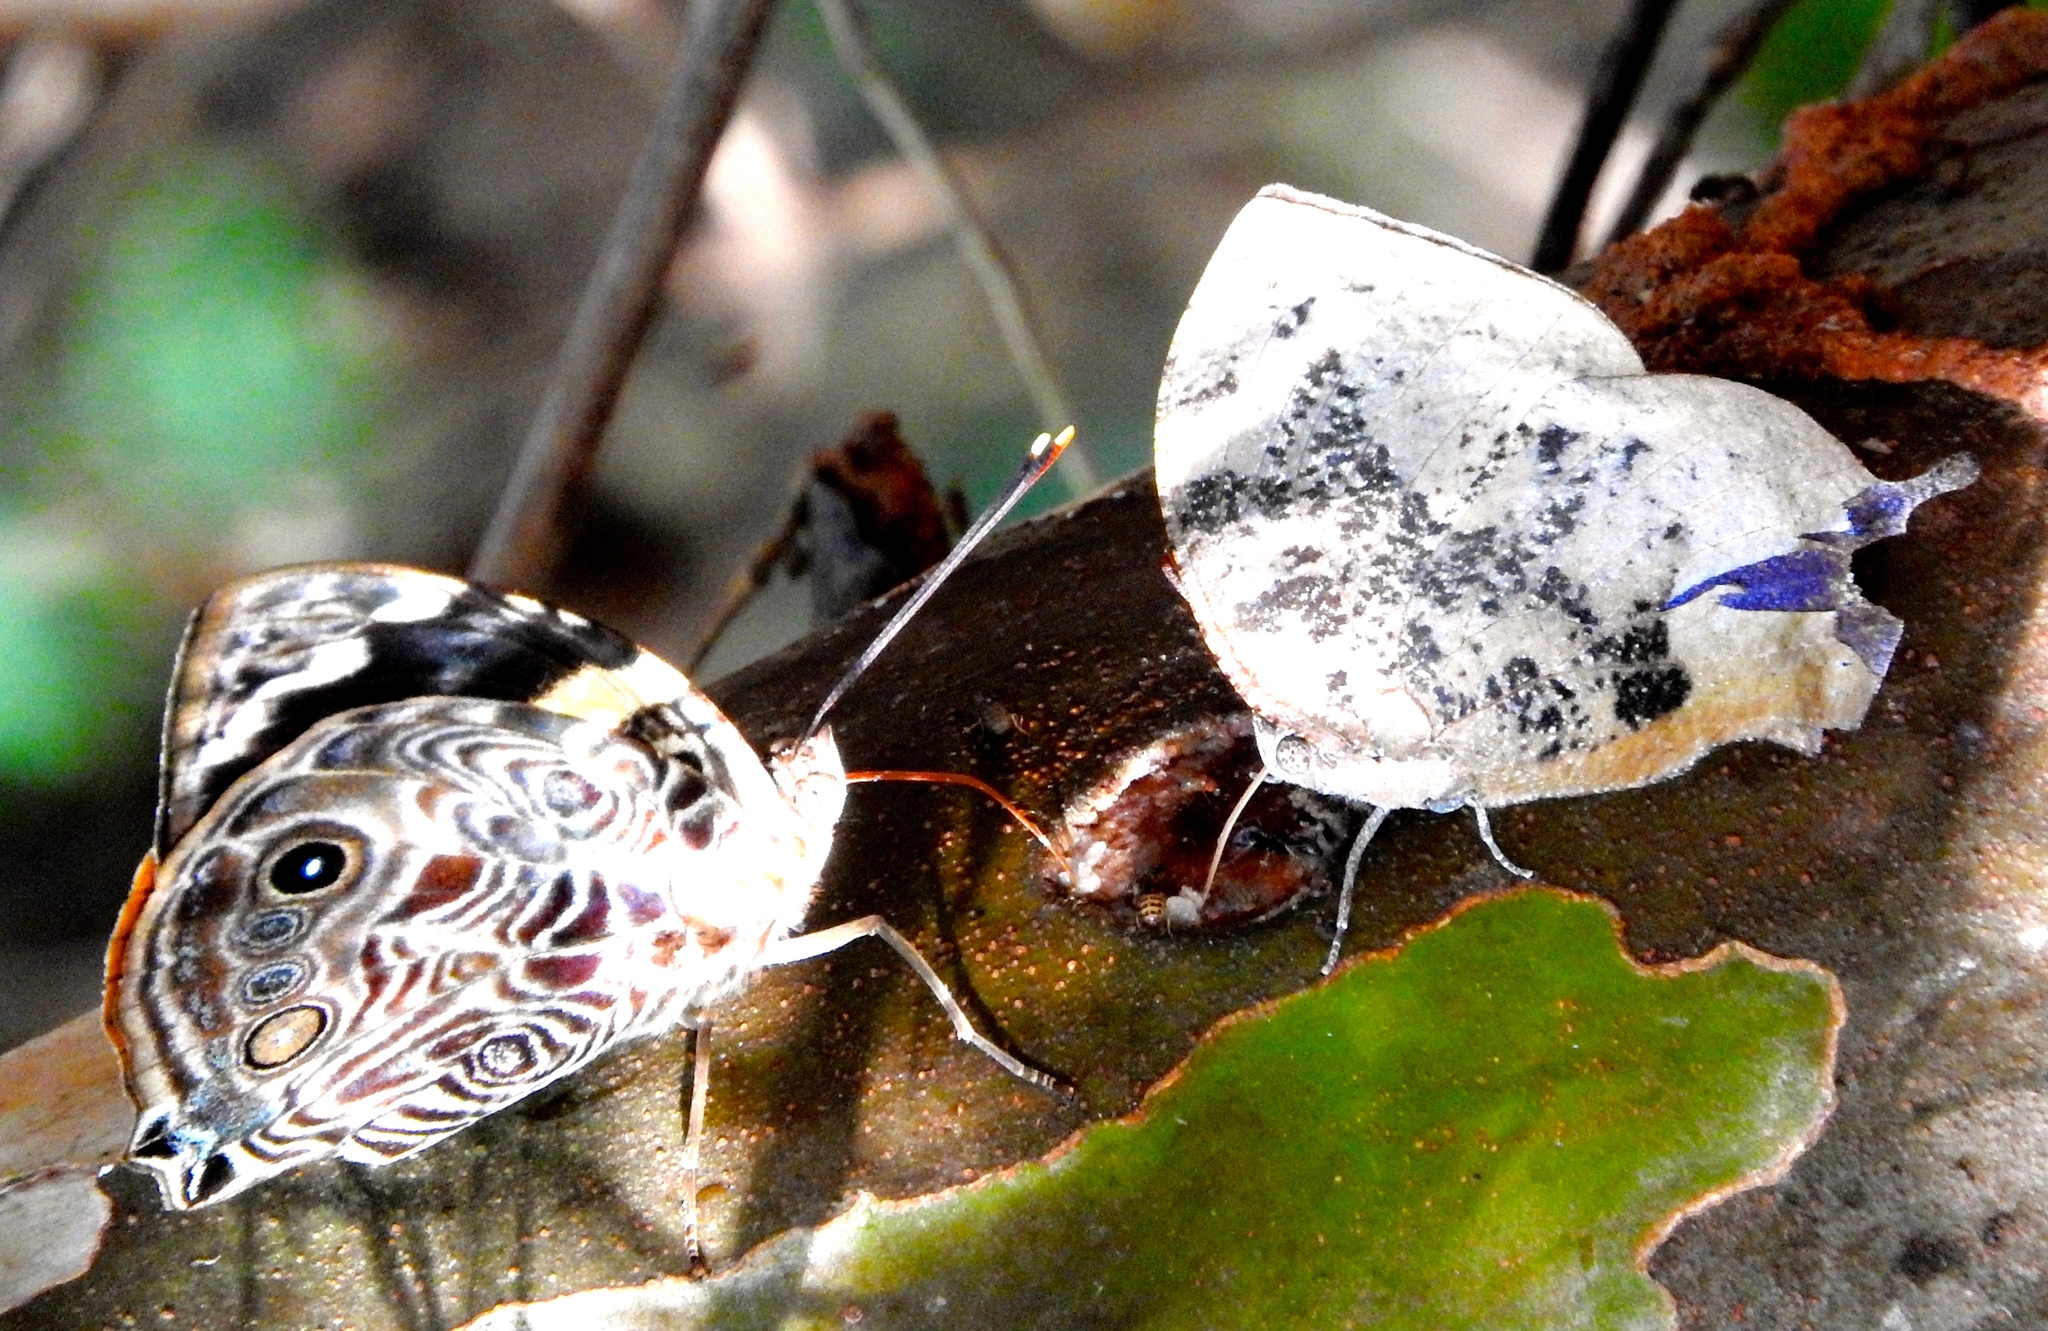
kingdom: Animalia
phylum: Arthropoda
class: Insecta
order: Lepidoptera
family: Nymphalidae
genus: Smyrna
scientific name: Smyrna blomfildia
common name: Blomfild's beauty
